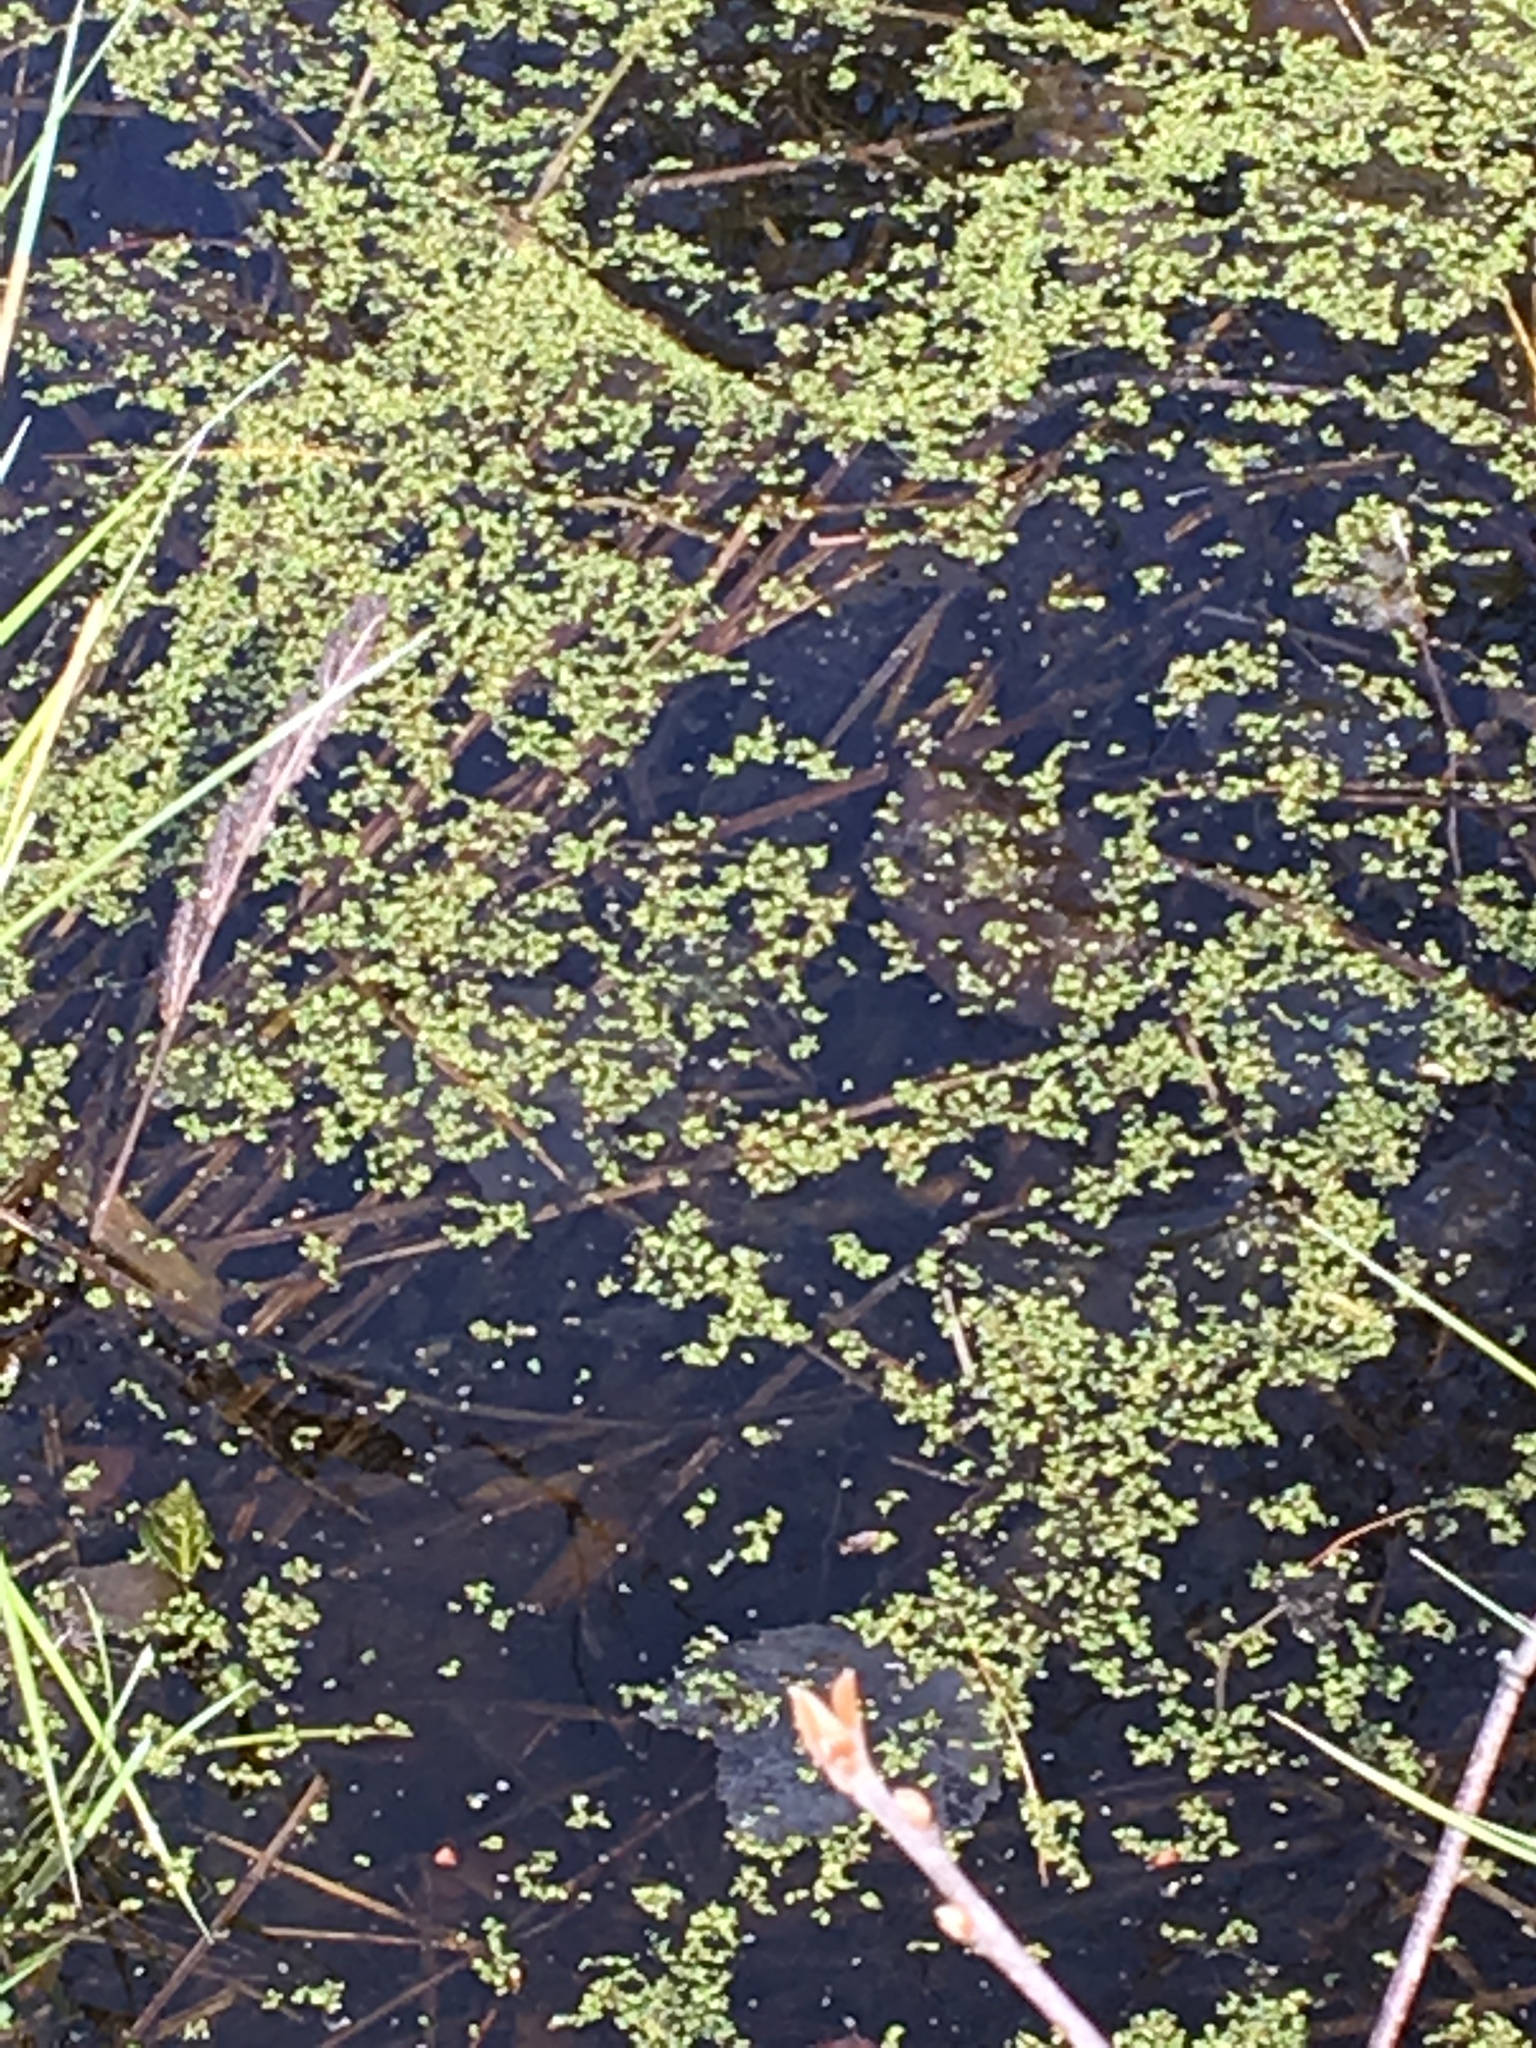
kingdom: Plantae
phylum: Tracheophyta
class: Liliopsida
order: Alismatales
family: Araceae
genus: Lemna
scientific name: Lemna minor
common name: Common duckweed
